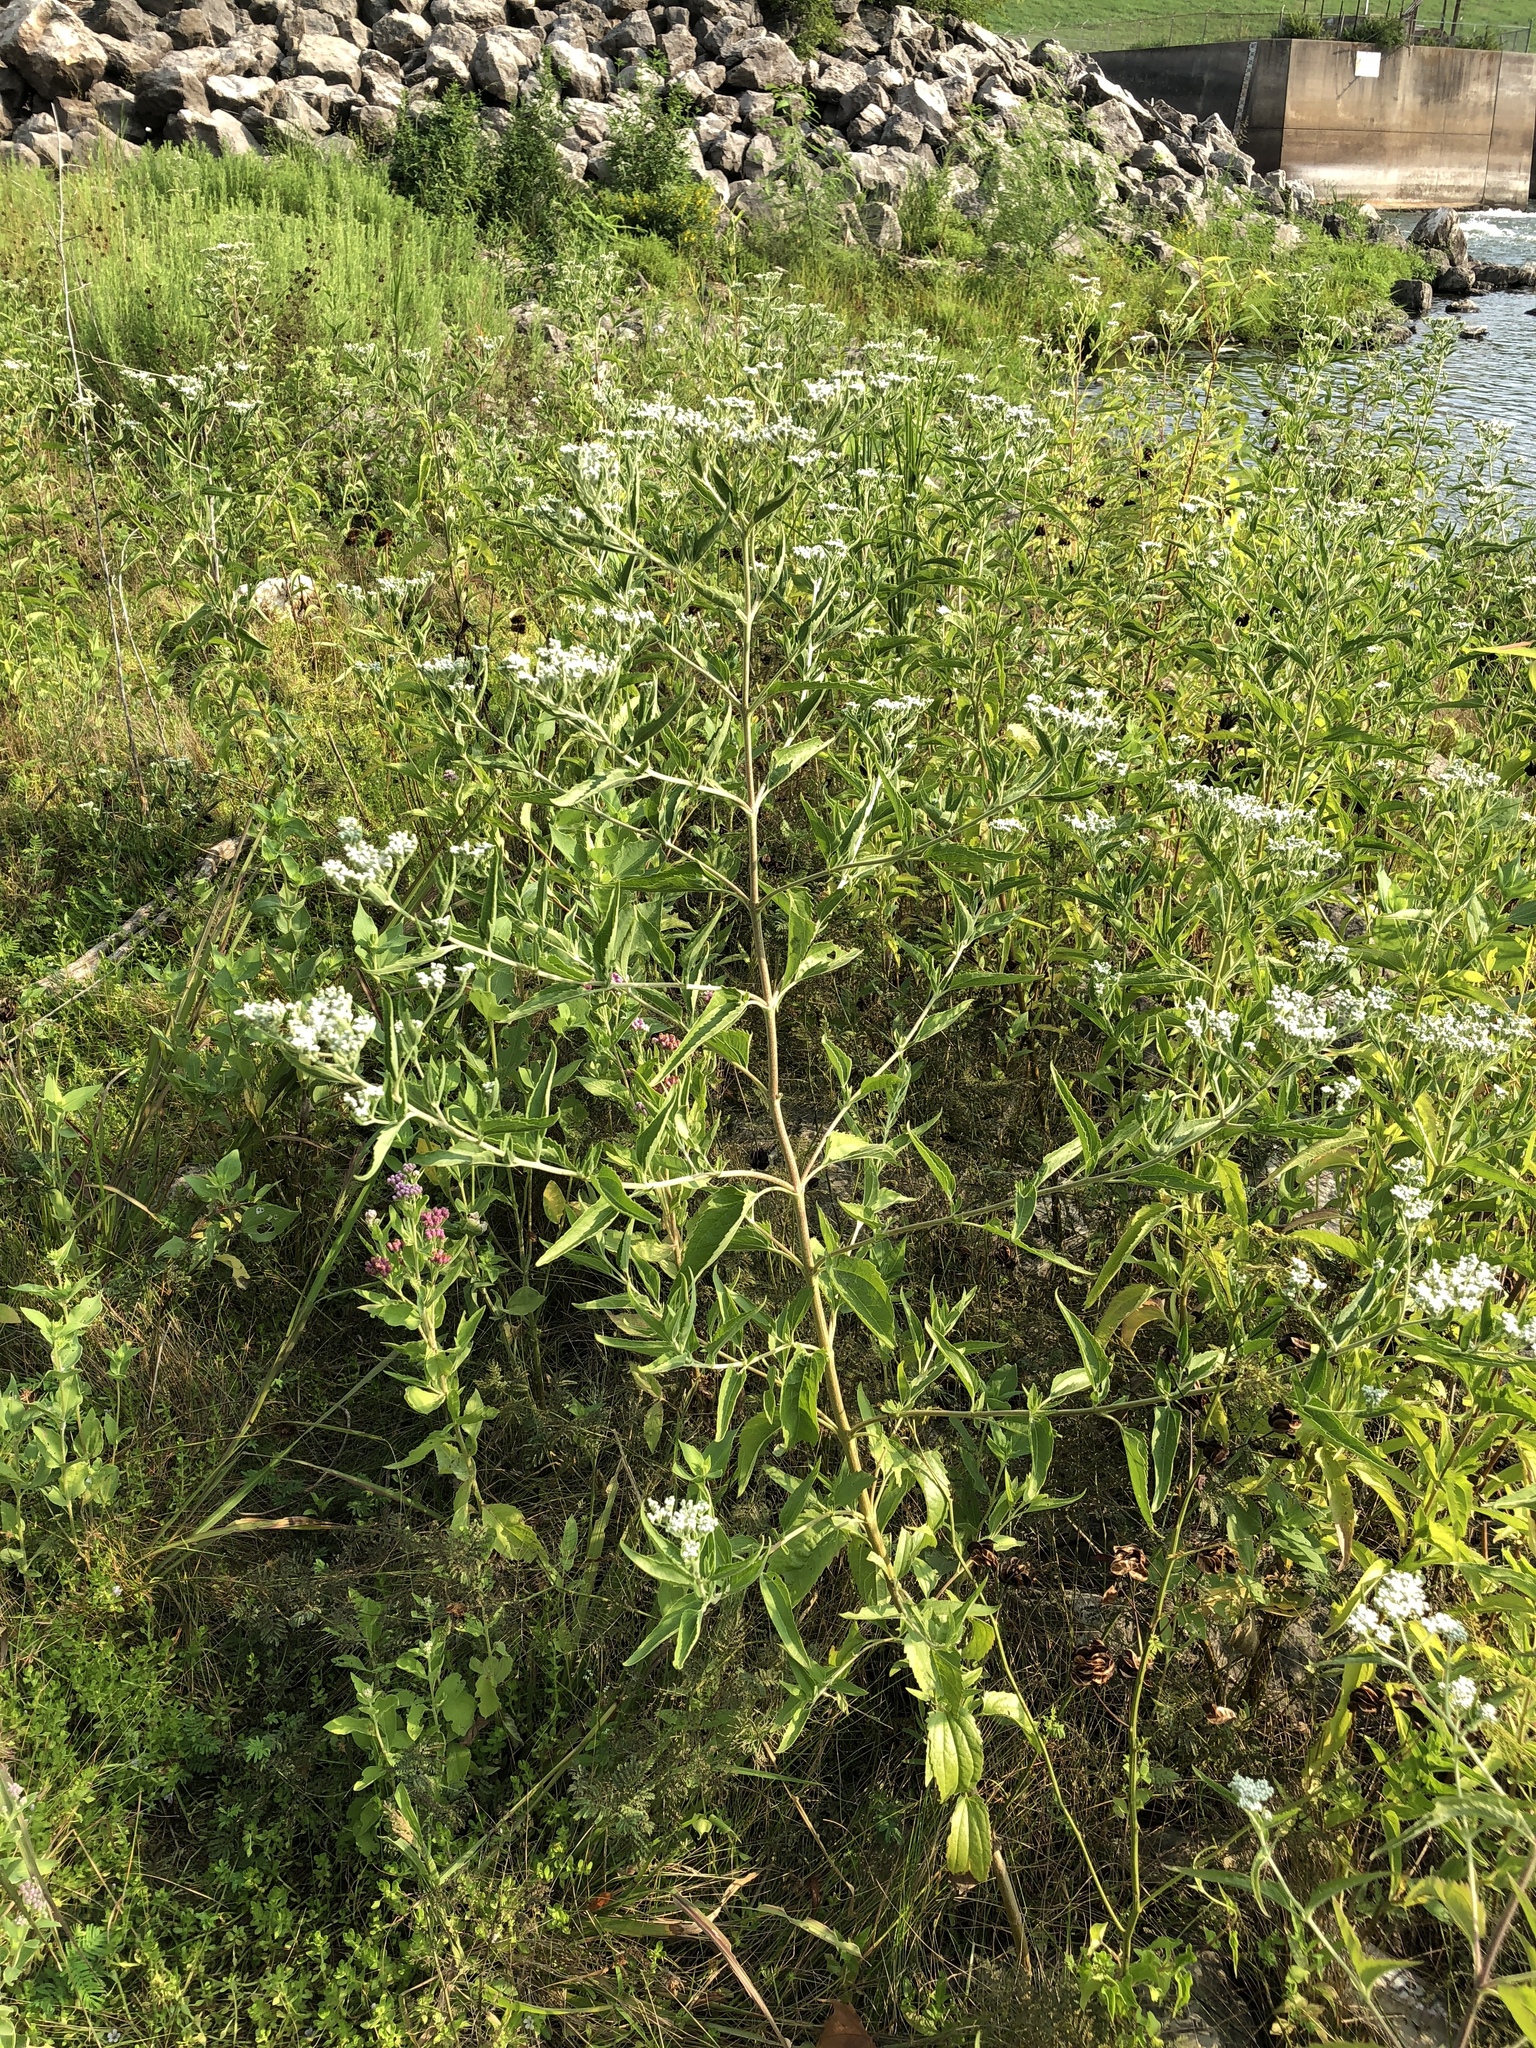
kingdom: Plantae
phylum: Tracheophyta
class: Magnoliopsida
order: Asterales
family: Asteraceae
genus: Eupatorium
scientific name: Eupatorium serotinum
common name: Late boneset
